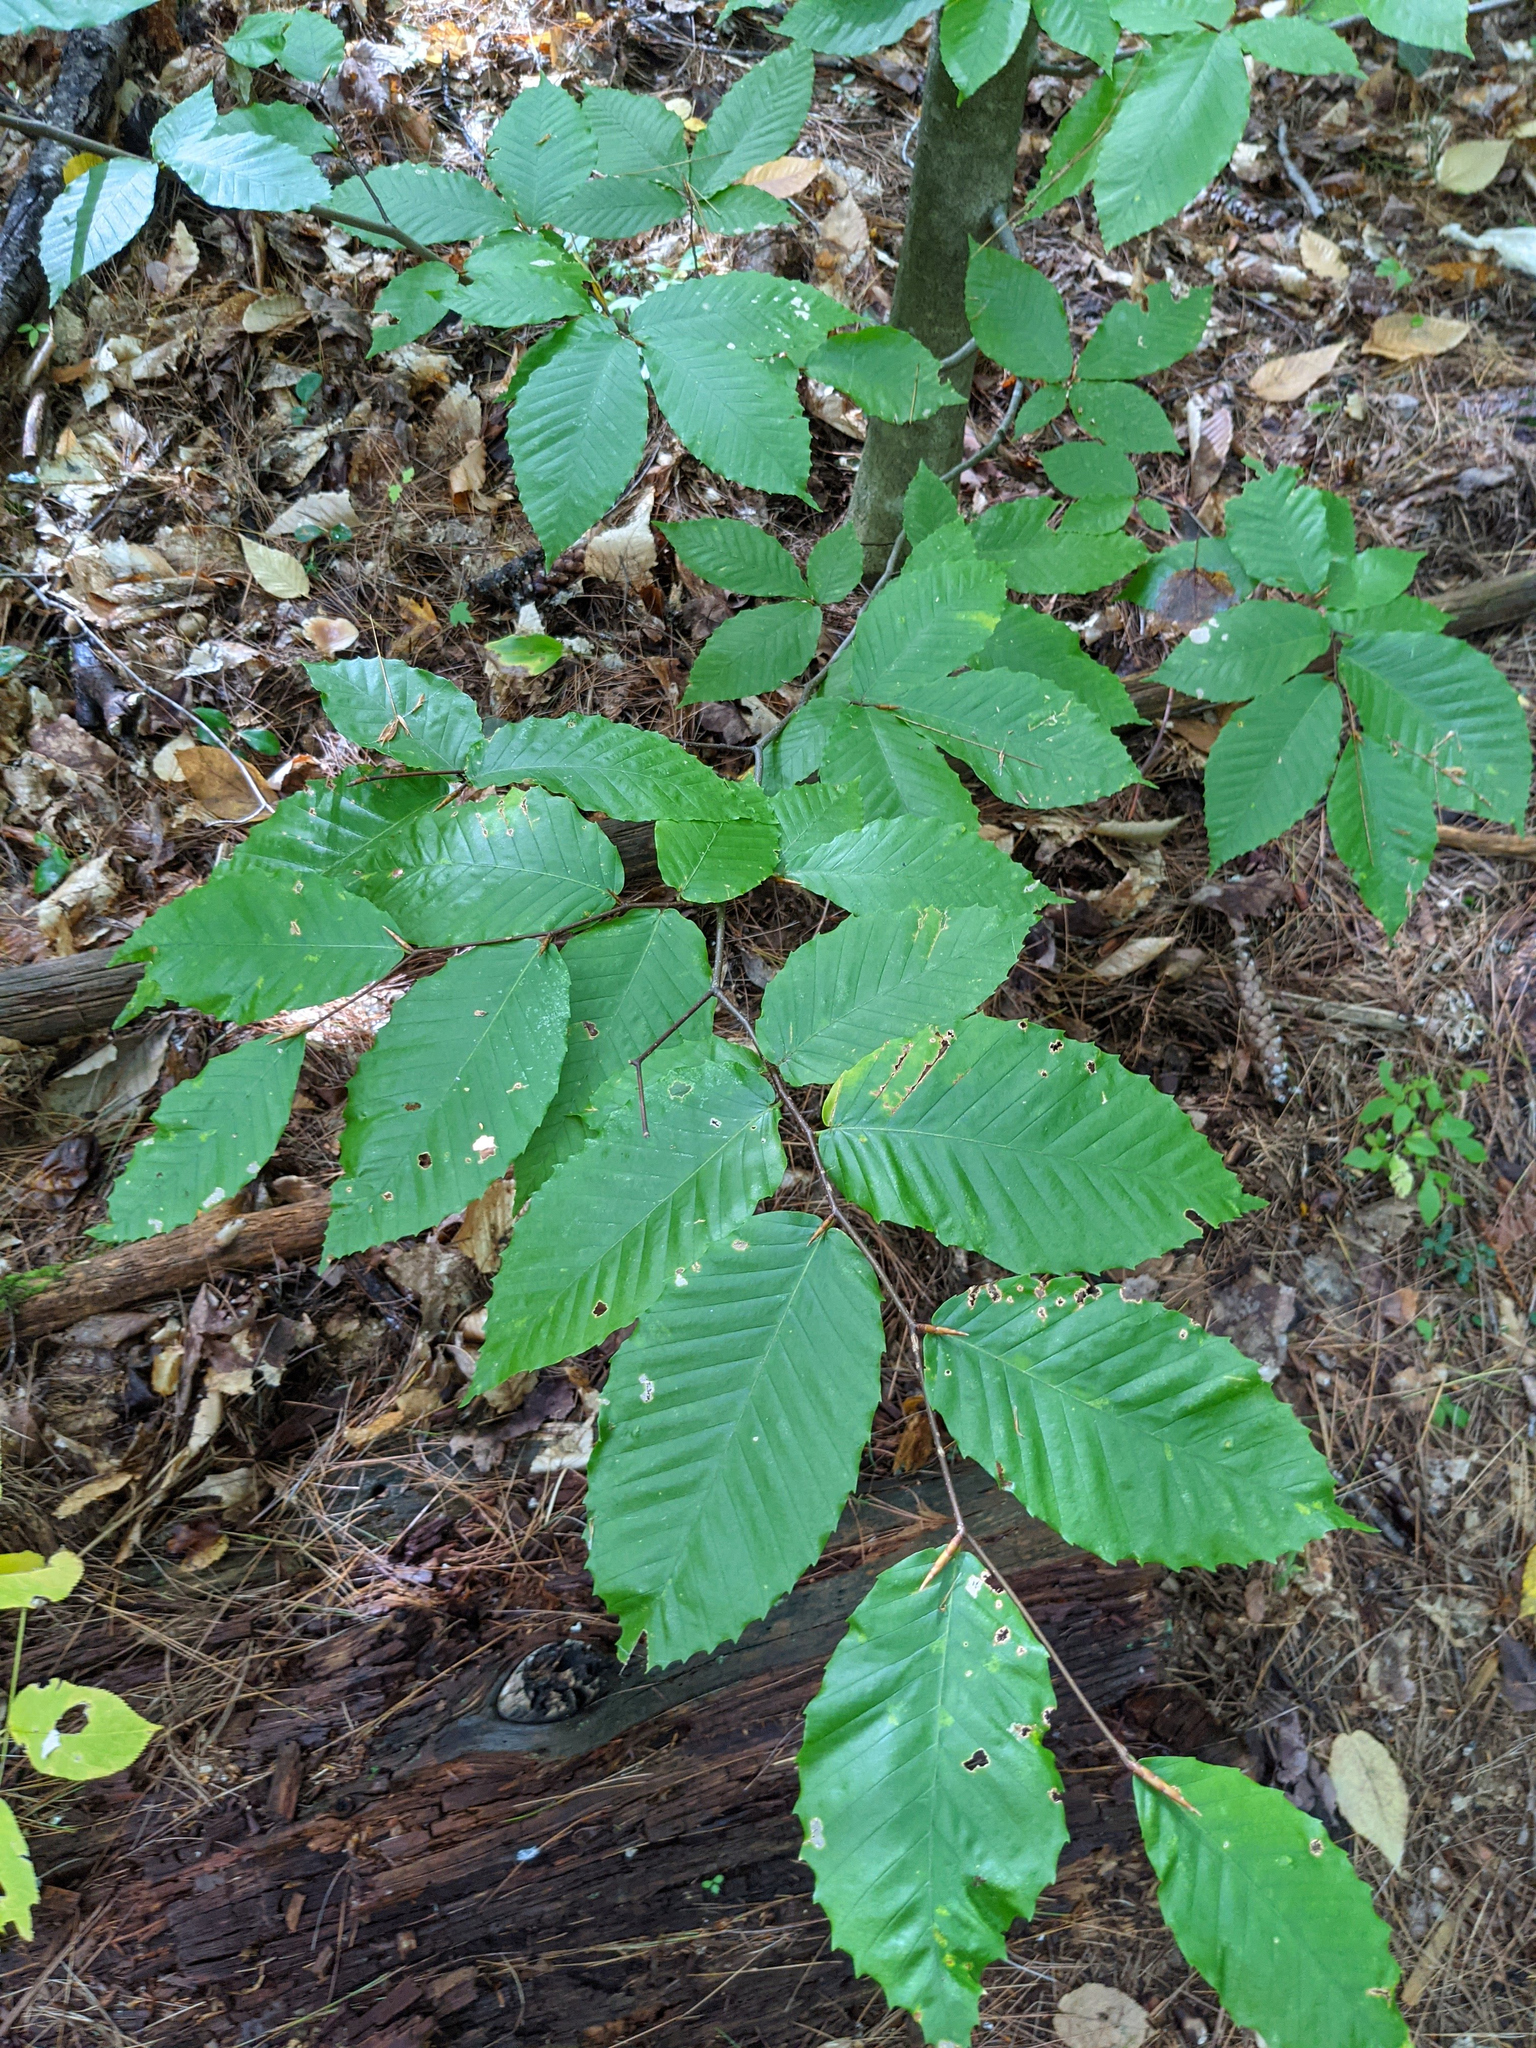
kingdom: Plantae
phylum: Tracheophyta
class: Magnoliopsida
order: Fagales
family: Fagaceae
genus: Fagus
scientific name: Fagus grandifolia
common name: American beech
